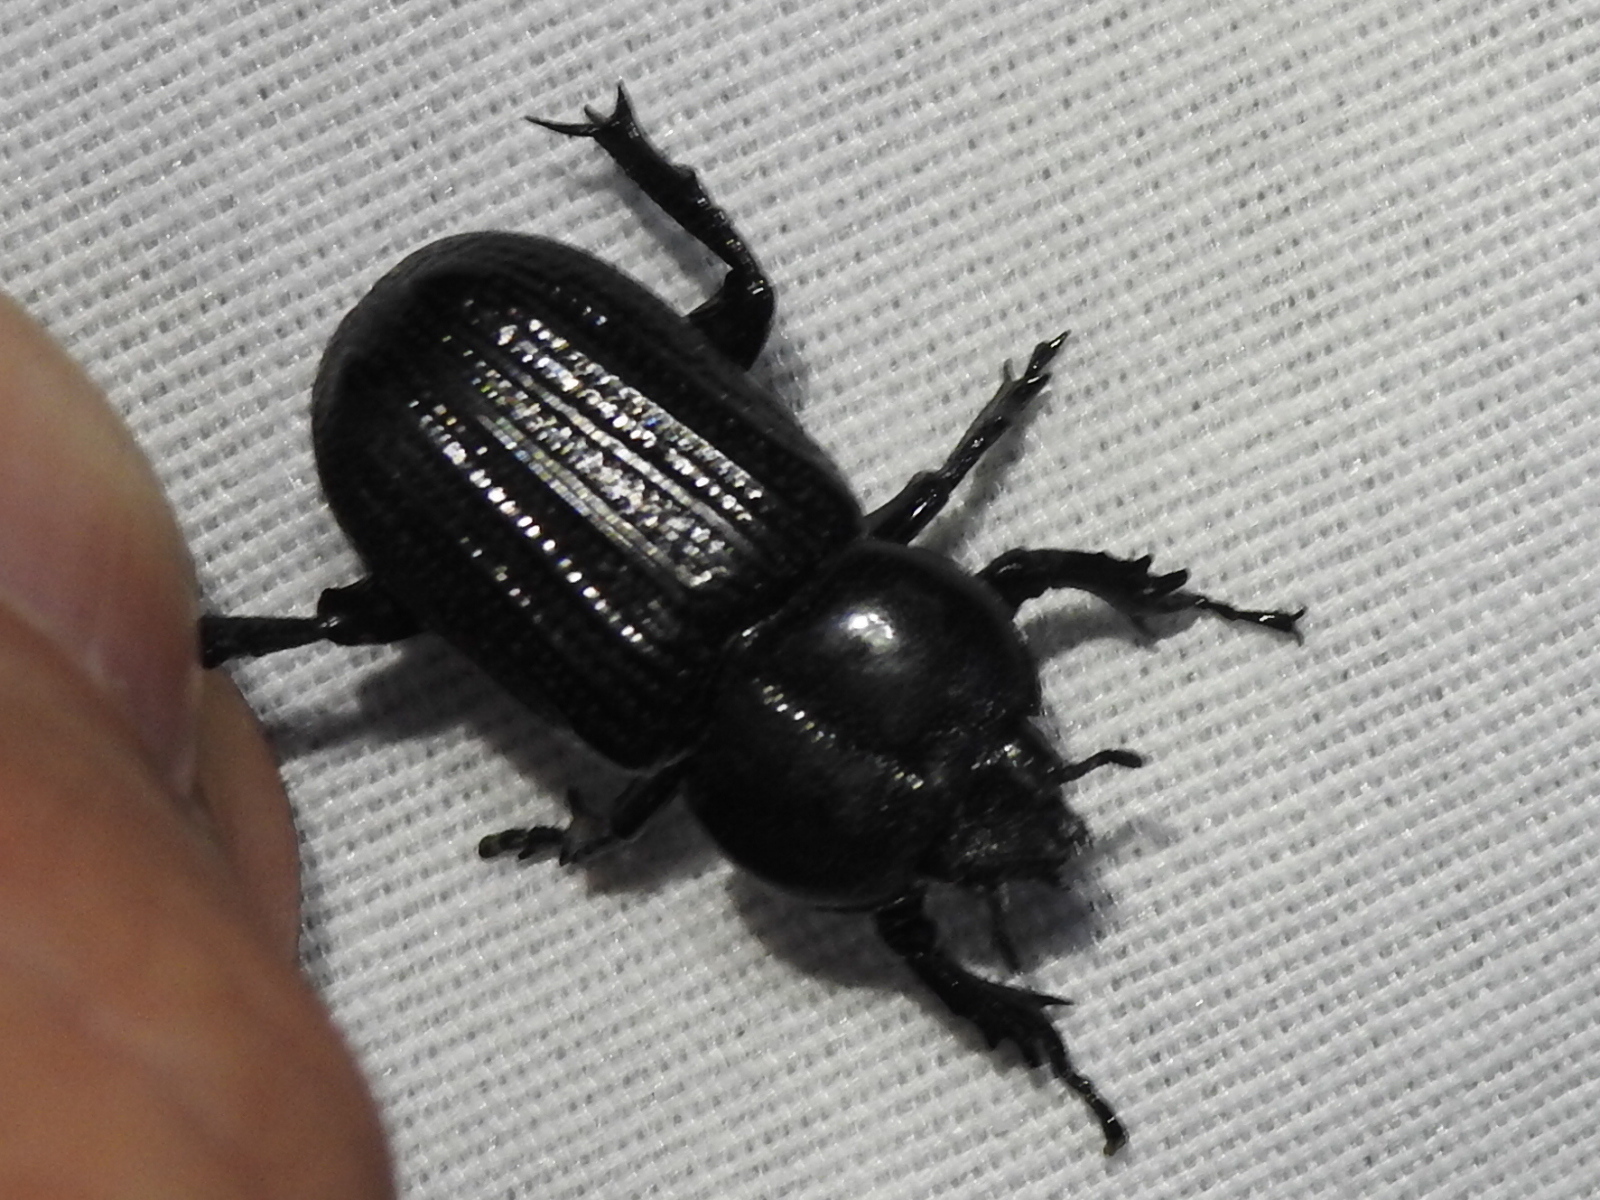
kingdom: Animalia
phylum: Arthropoda
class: Insecta
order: Coleoptera
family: Scarabaeidae
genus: Phileurus
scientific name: Phileurus valgus
